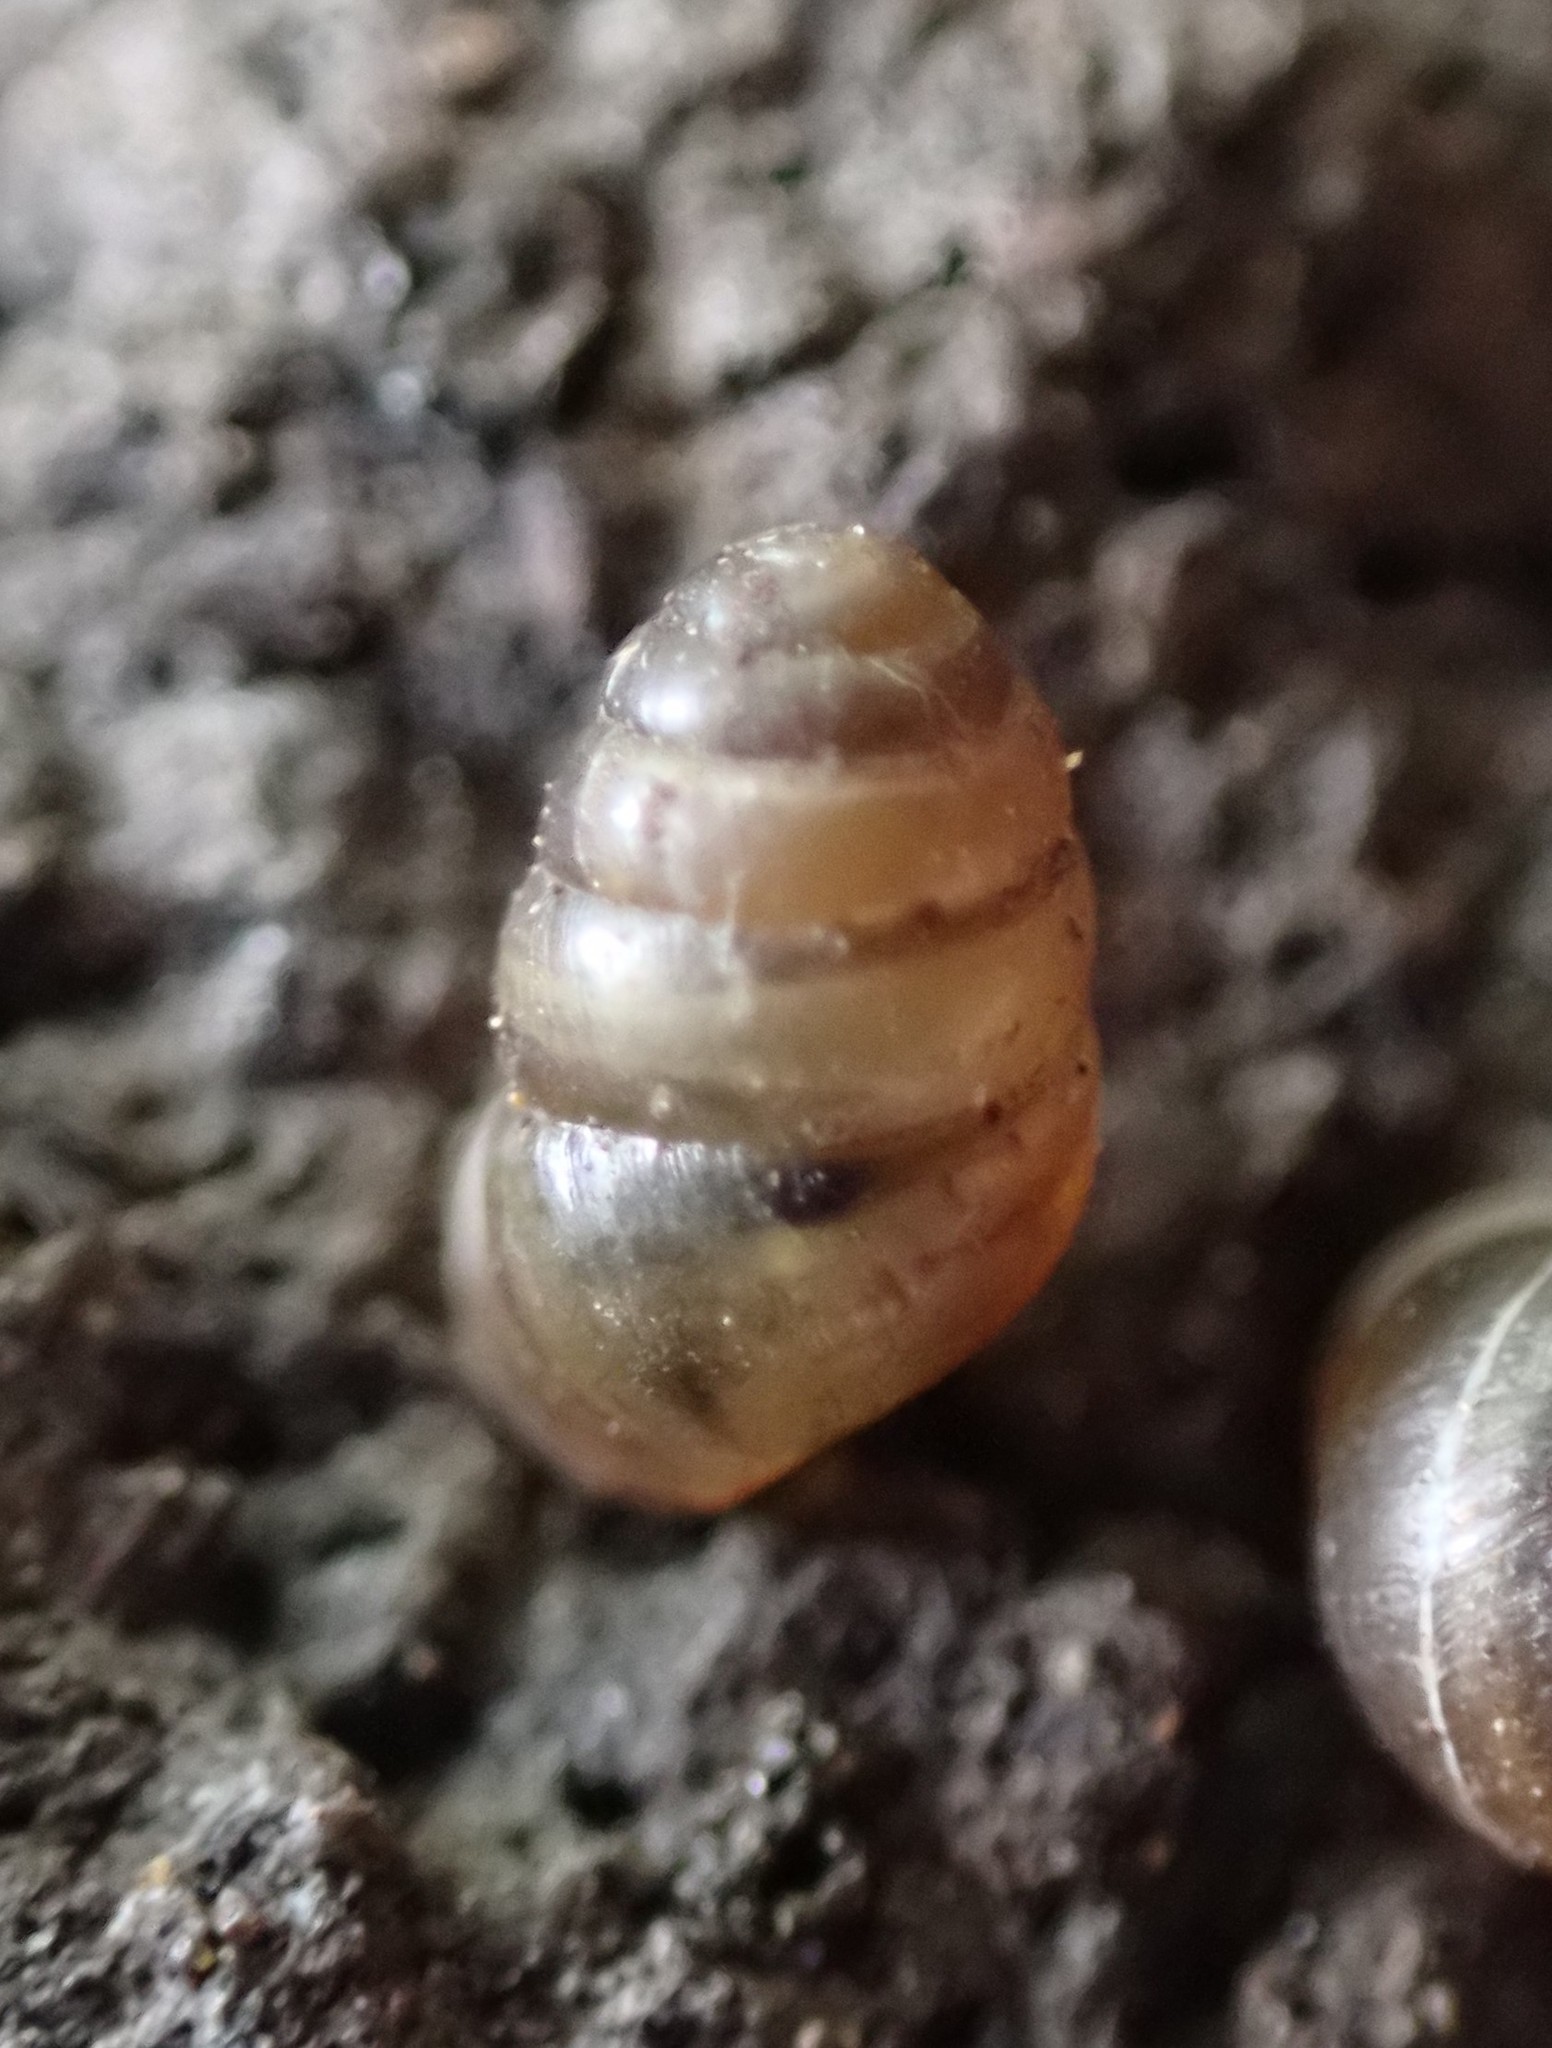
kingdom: Animalia
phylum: Mollusca
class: Gastropoda
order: Stylommatophora
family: Lauriidae
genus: Lauria
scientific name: Lauria cylindracea
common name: Common chrysalis snail
